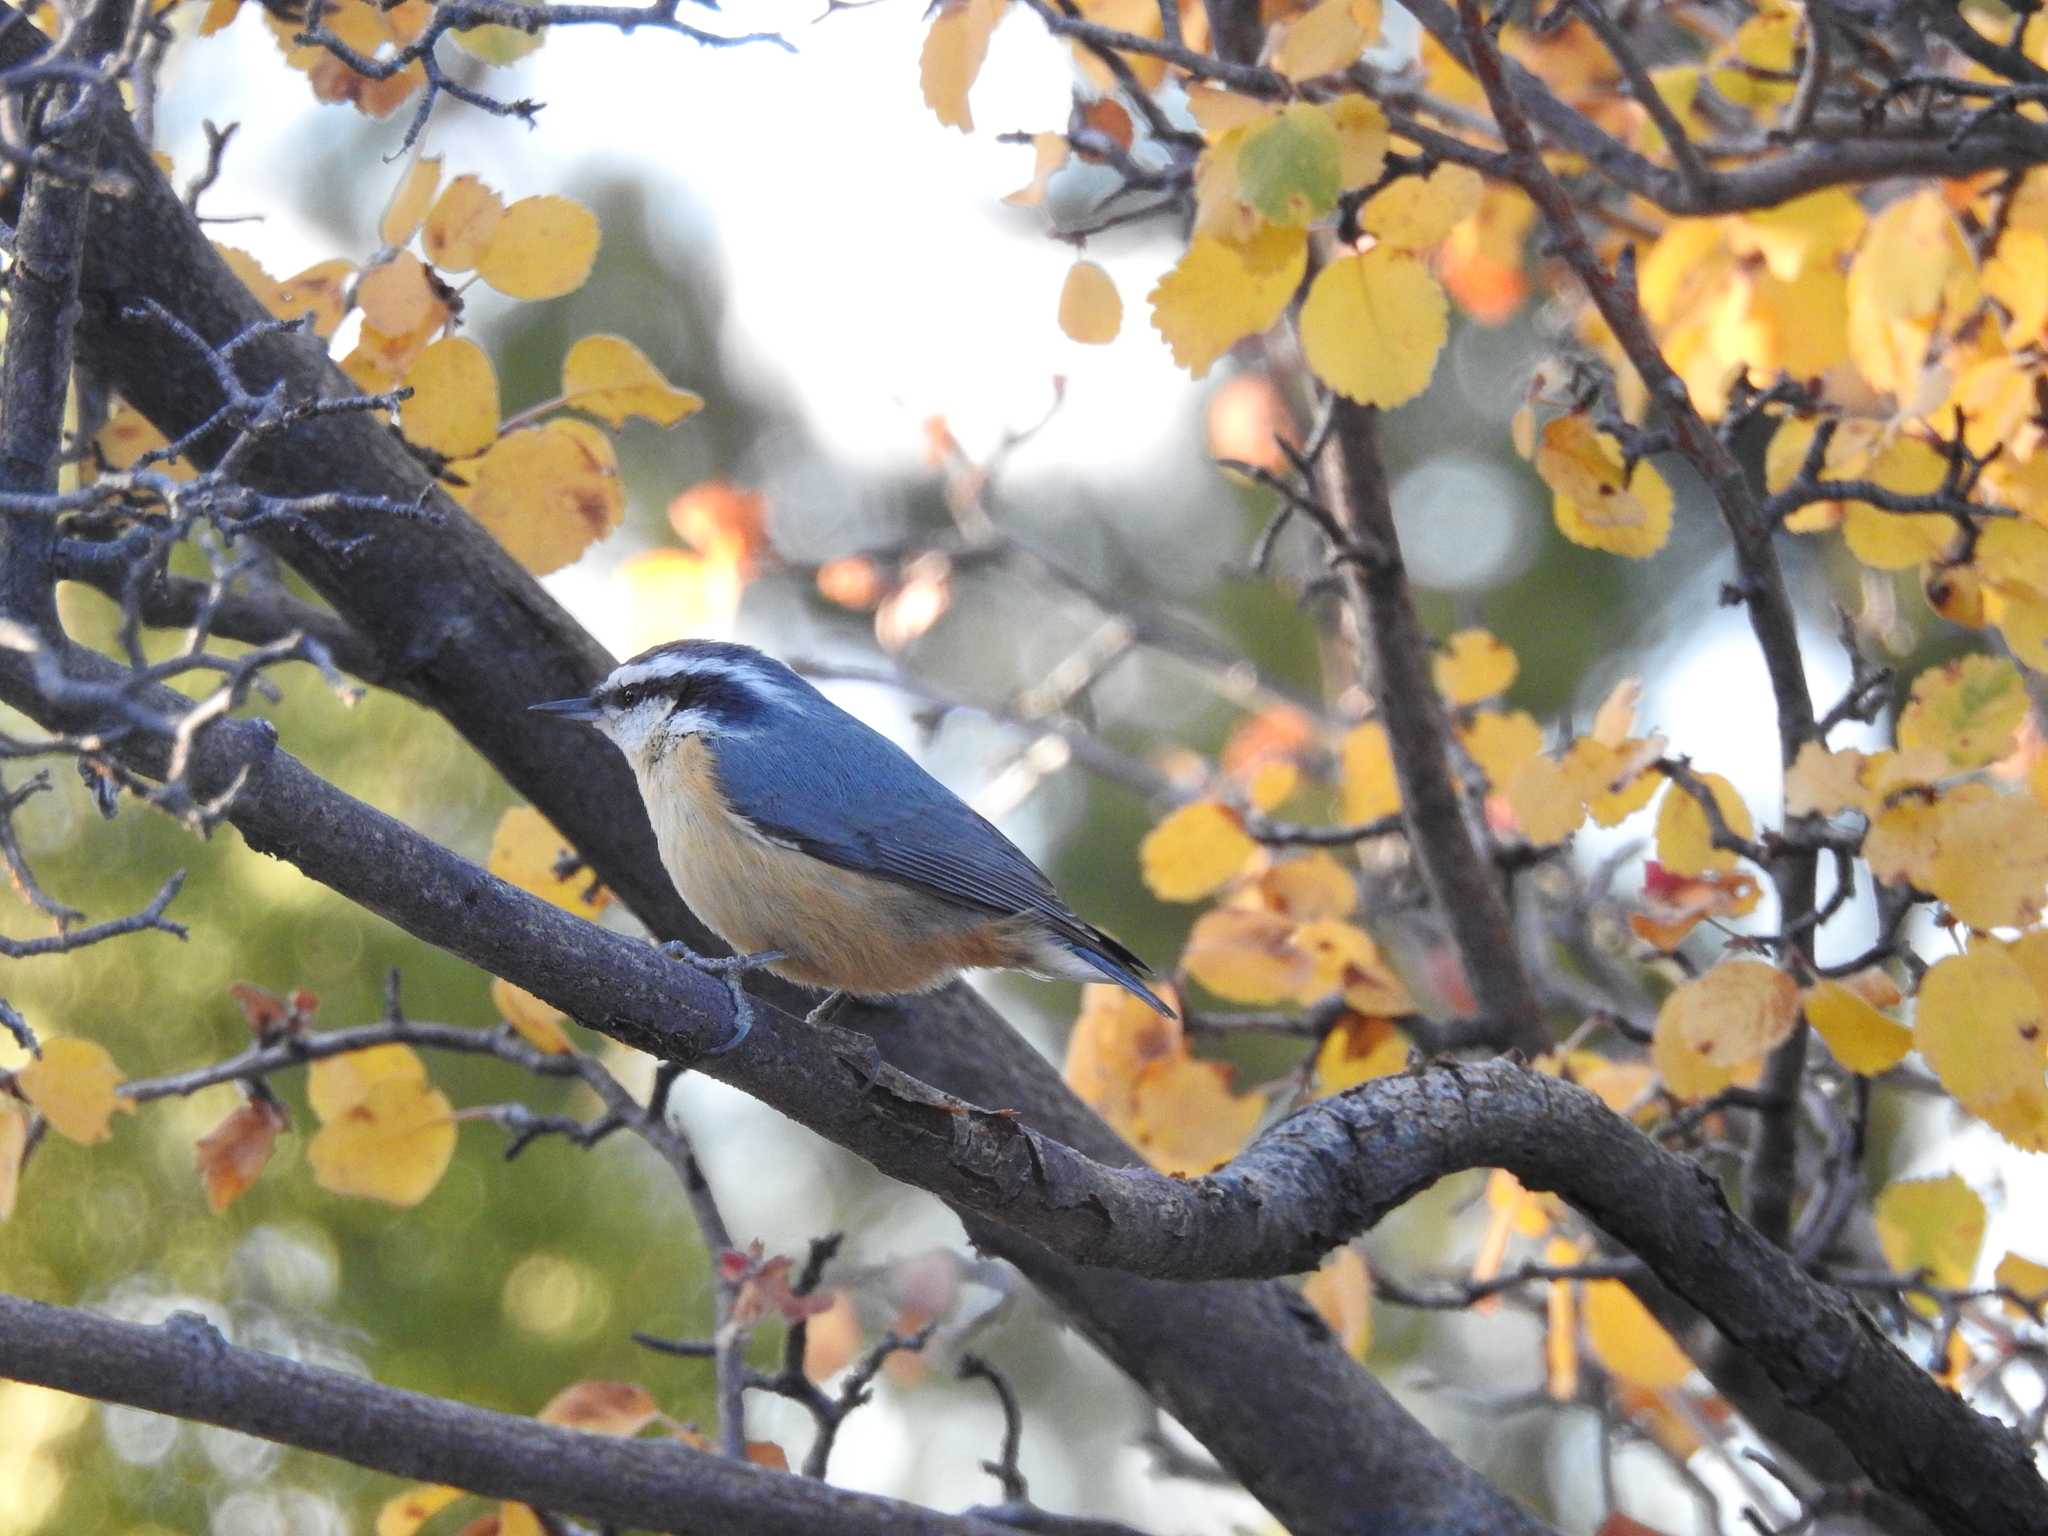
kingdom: Animalia
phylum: Chordata
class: Aves
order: Passeriformes
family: Sittidae
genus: Sitta
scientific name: Sitta canadensis
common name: Red-breasted nuthatch
